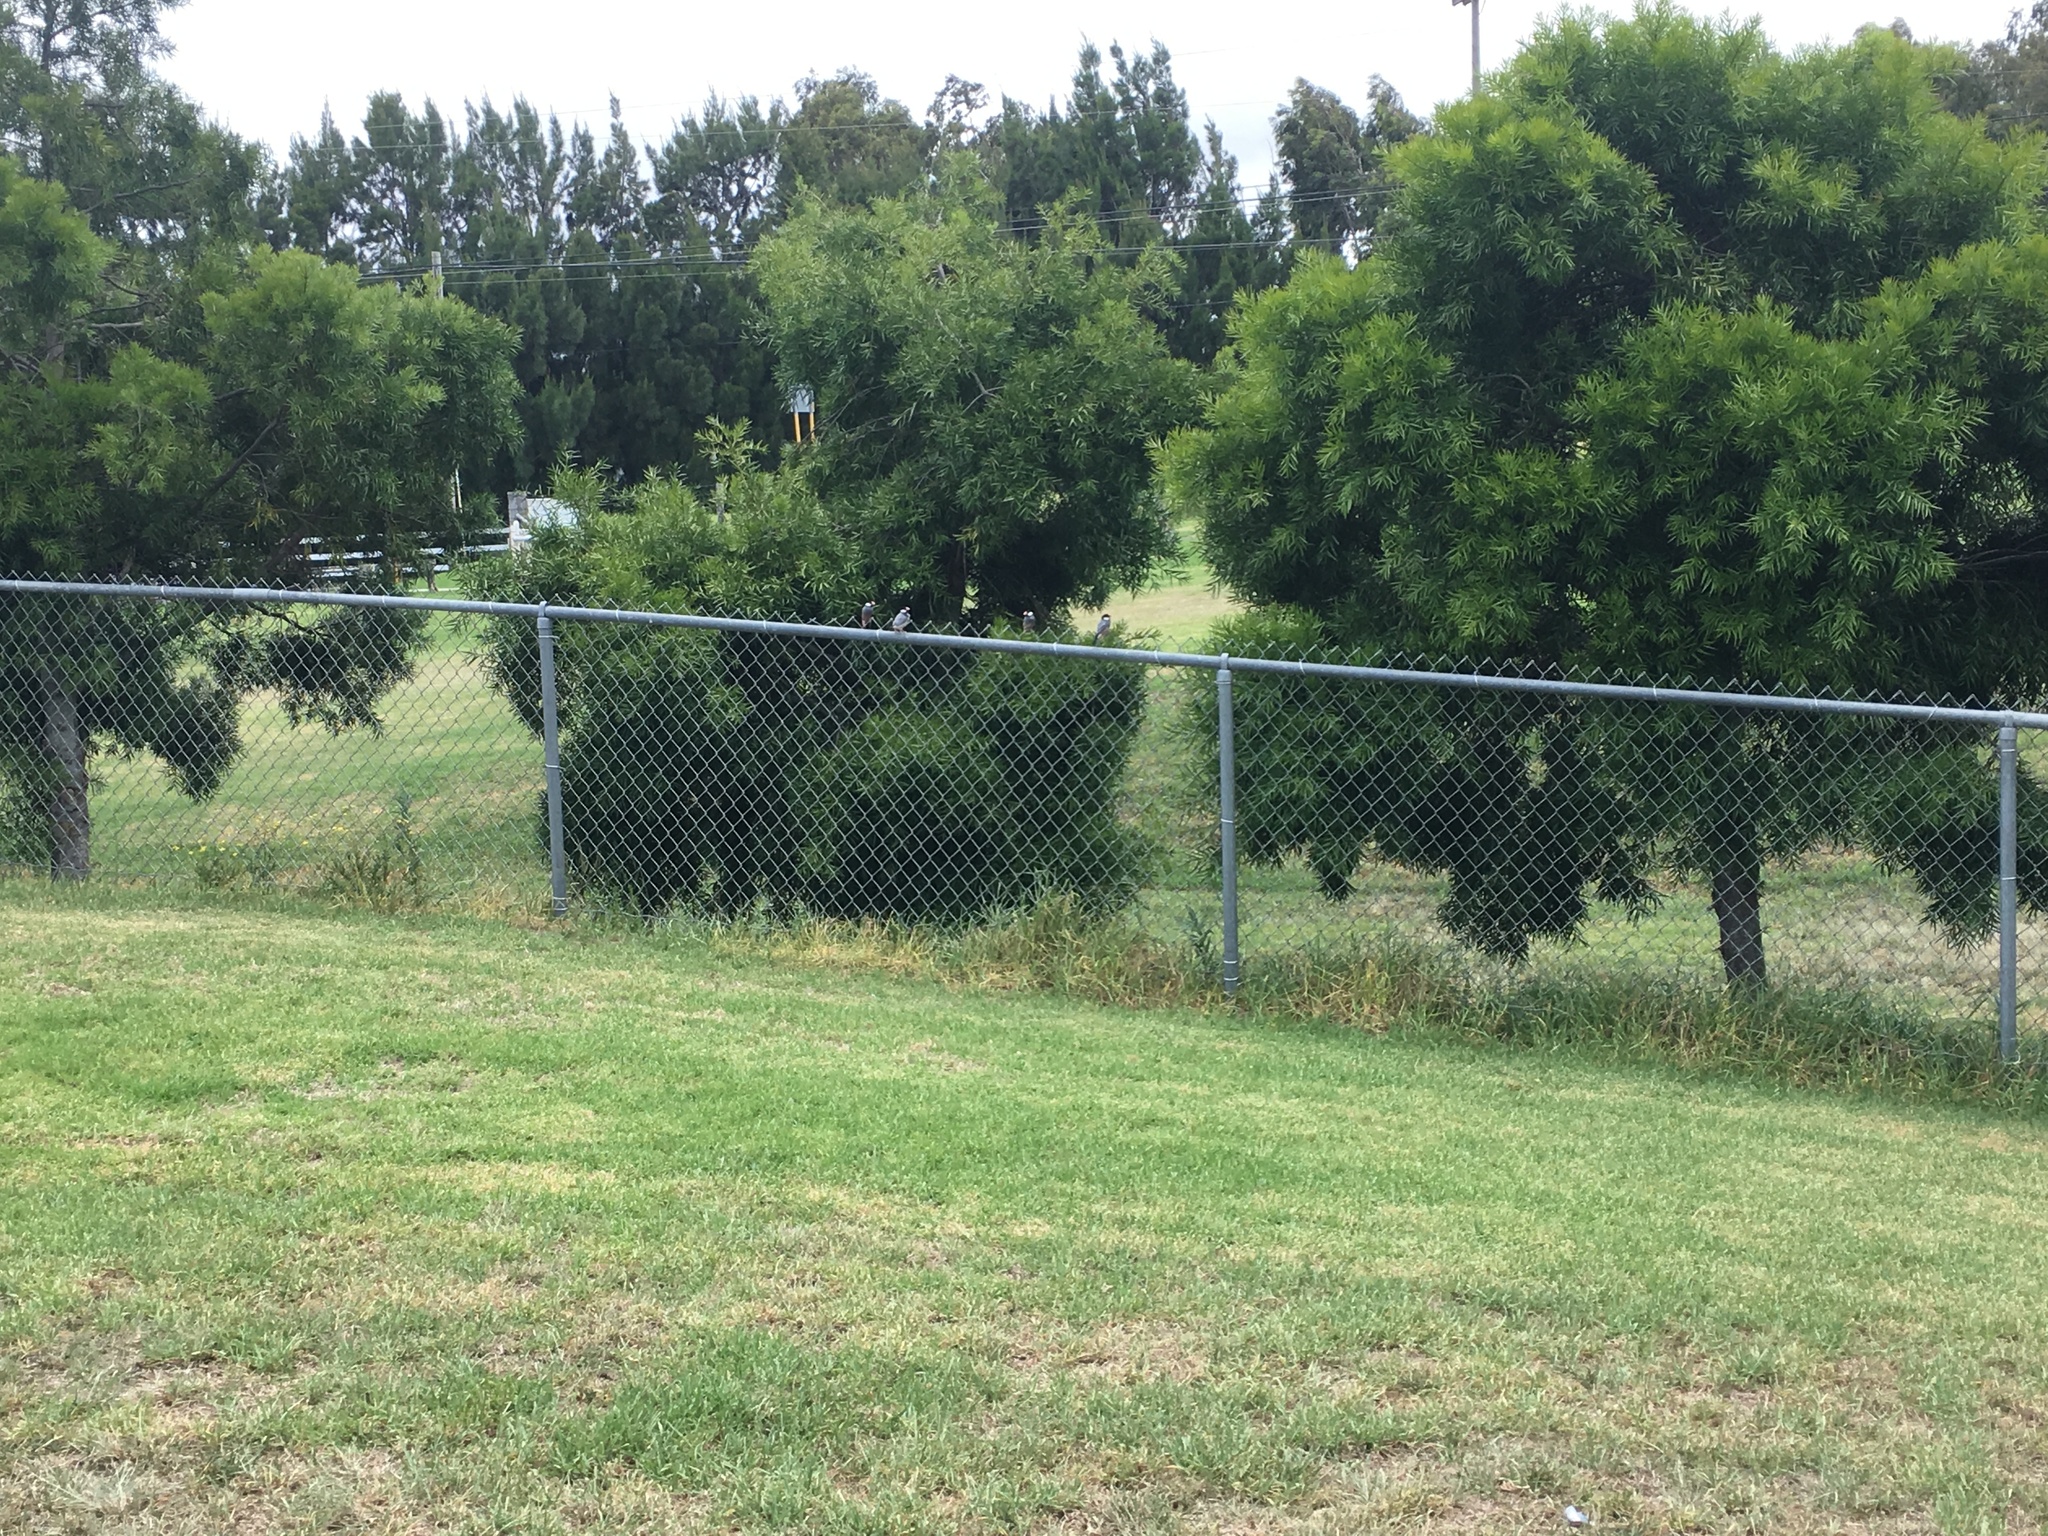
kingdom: Animalia
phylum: Chordata
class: Aves
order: Passeriformes
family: Estrildidae
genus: Lonchura
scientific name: Lonchura oryzivora
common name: Java sparrow
